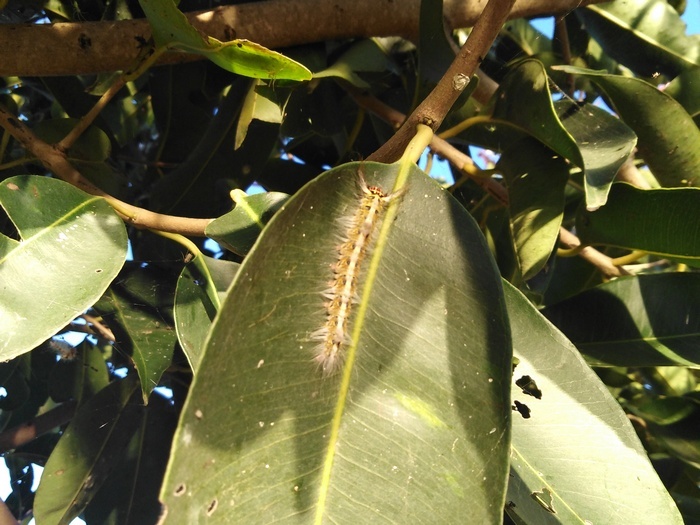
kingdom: Animalia
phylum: Arthropoda
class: Insecta
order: Lepidoptera
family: Lasiocampidae
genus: Trabala
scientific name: Trabala vishnou
